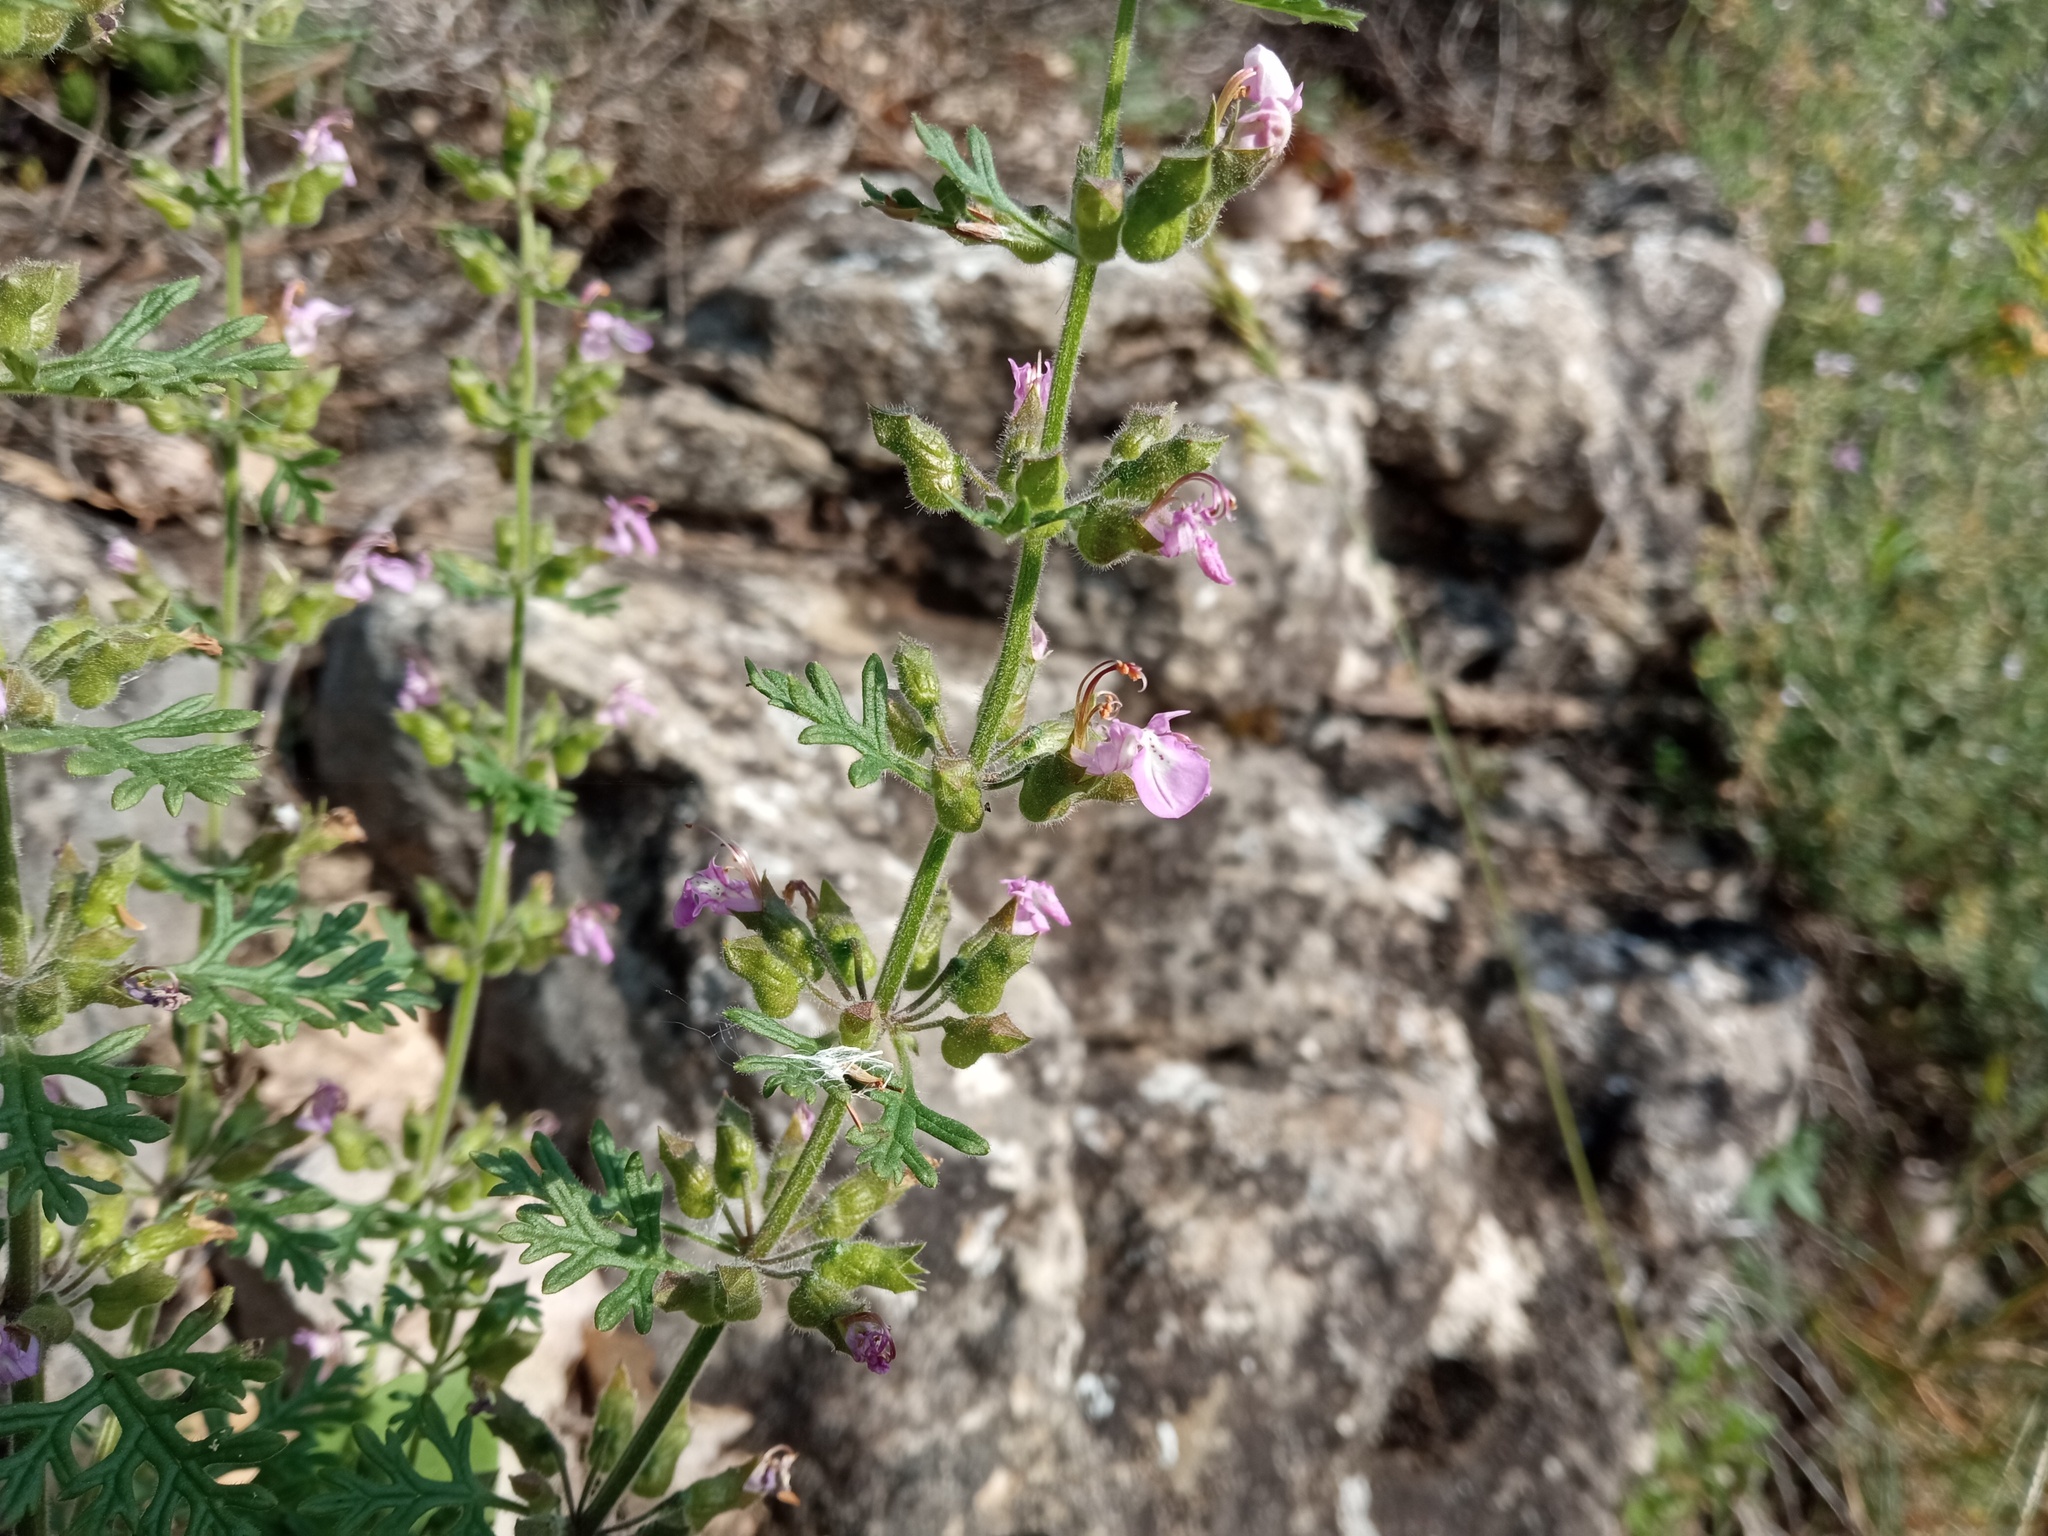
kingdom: Plantae
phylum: Tracheophyta
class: Magnoliopsida
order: Lamiales
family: Lamiaceae
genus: Teucrium
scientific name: Teucrium botrys
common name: Cut-leaved germander
